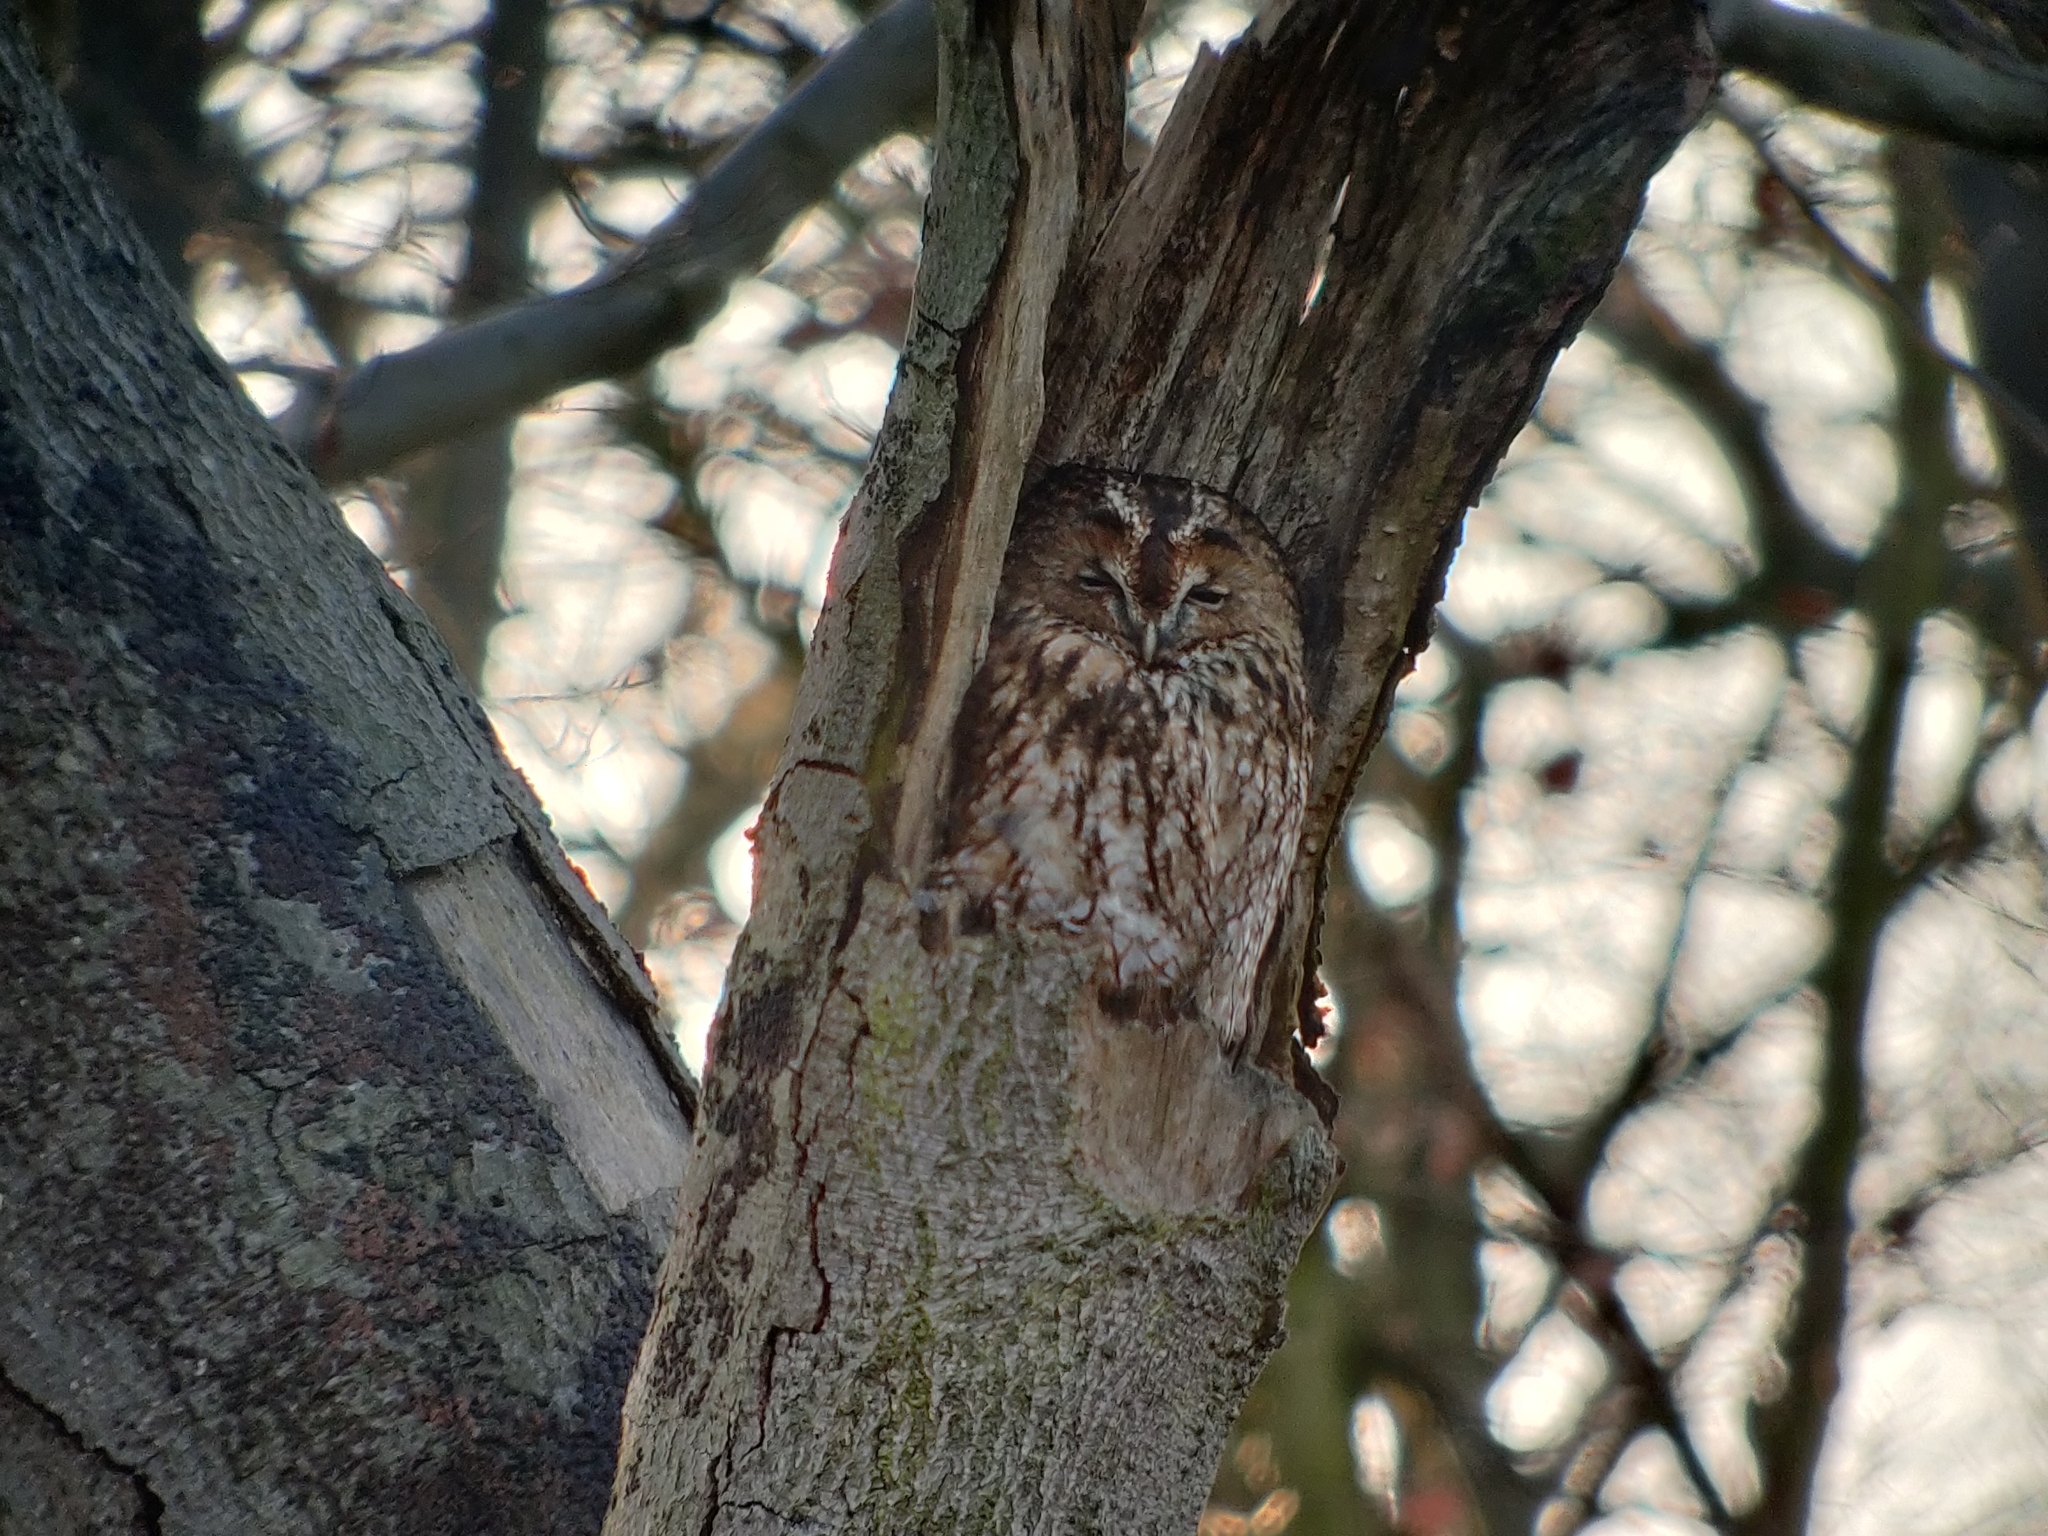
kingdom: Animalia
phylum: Chordata
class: Aves
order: Strigiformes
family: Strigidae
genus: Strix
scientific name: Strix aluco
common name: Tawny owl
